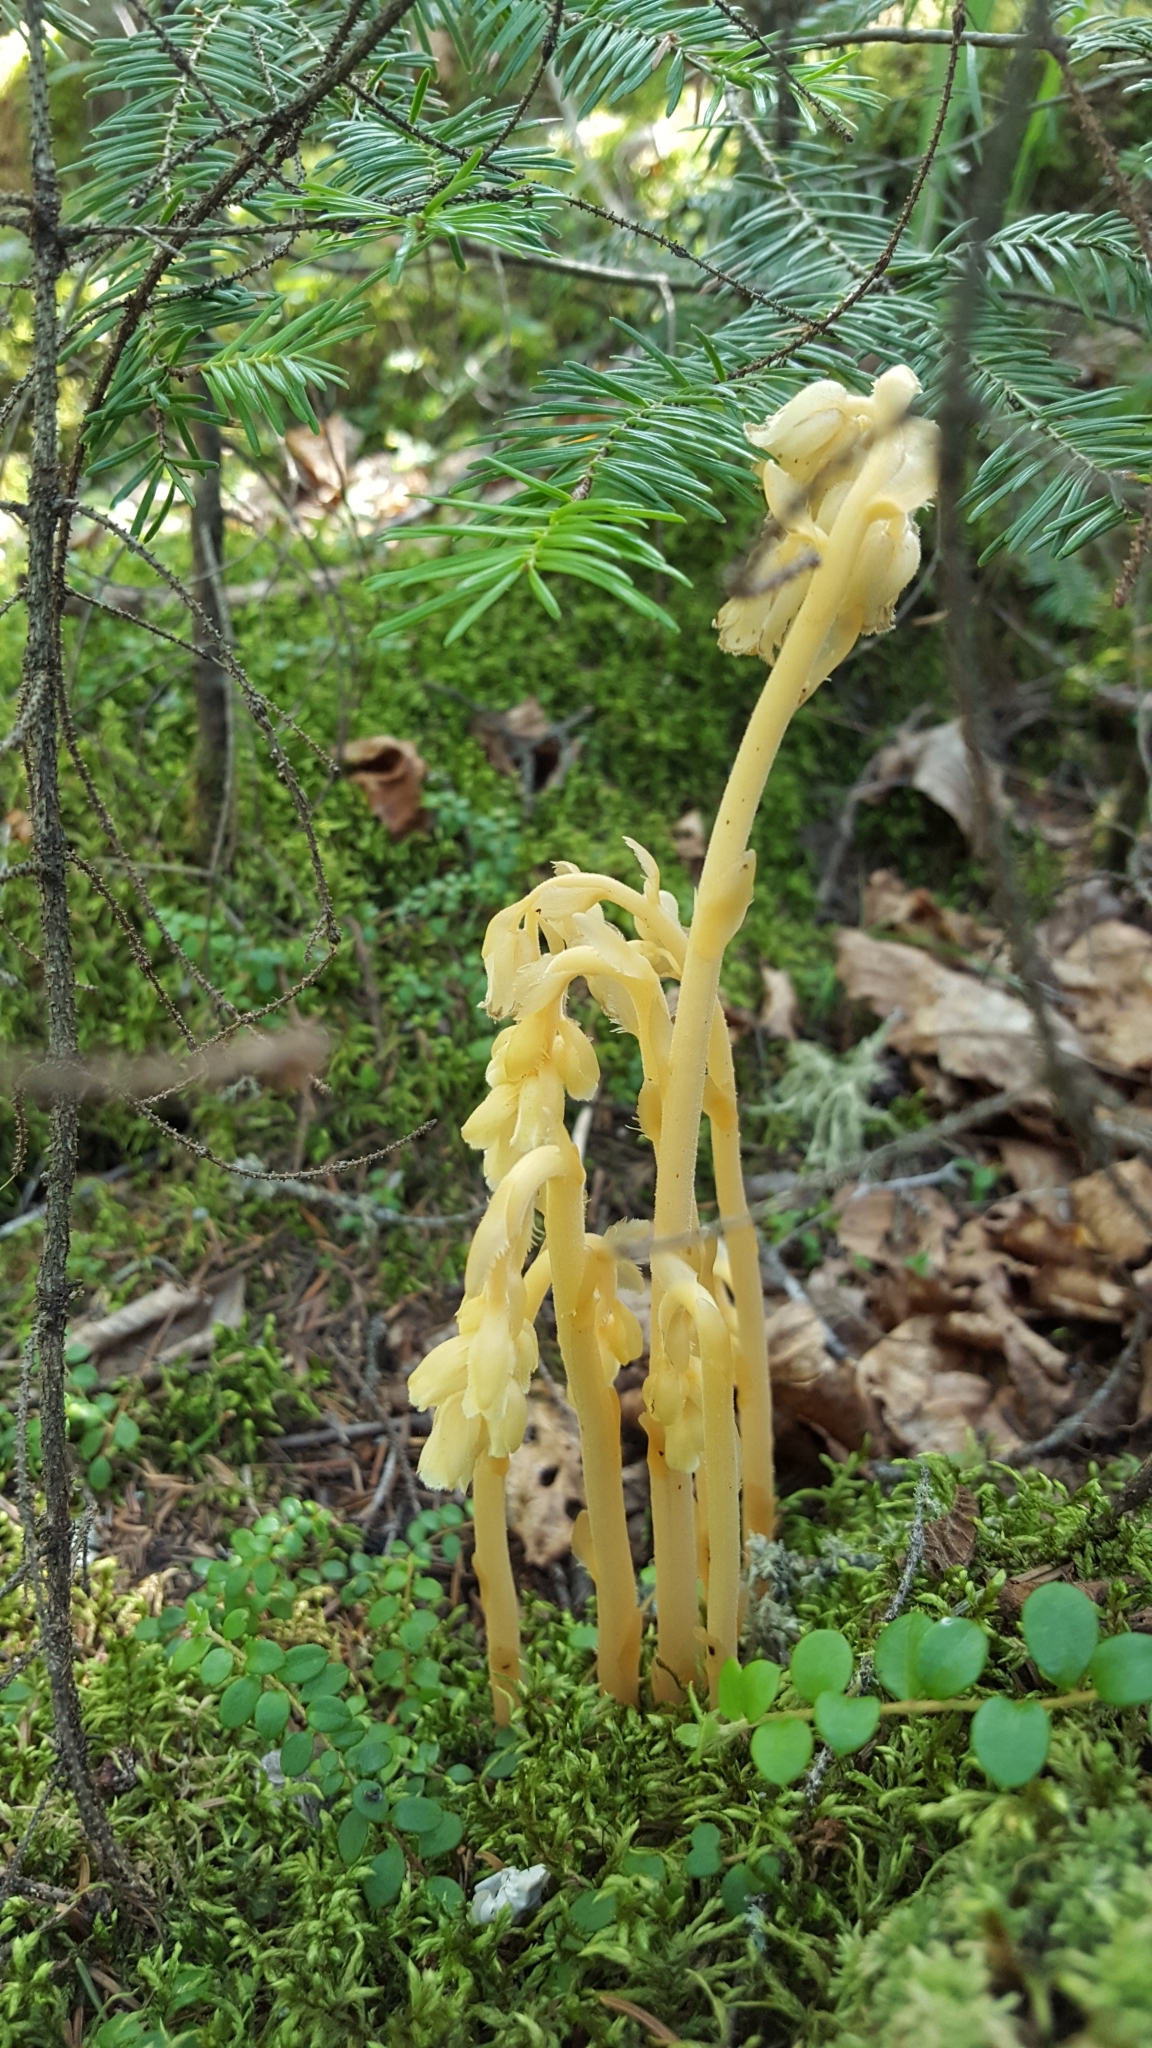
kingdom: Plantae
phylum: Tracheophyta
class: Magnoliopsida
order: Ericales
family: Ericaceae
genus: Hypopitys
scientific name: Hypopitys monotropa
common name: Yellow bird's-nest
